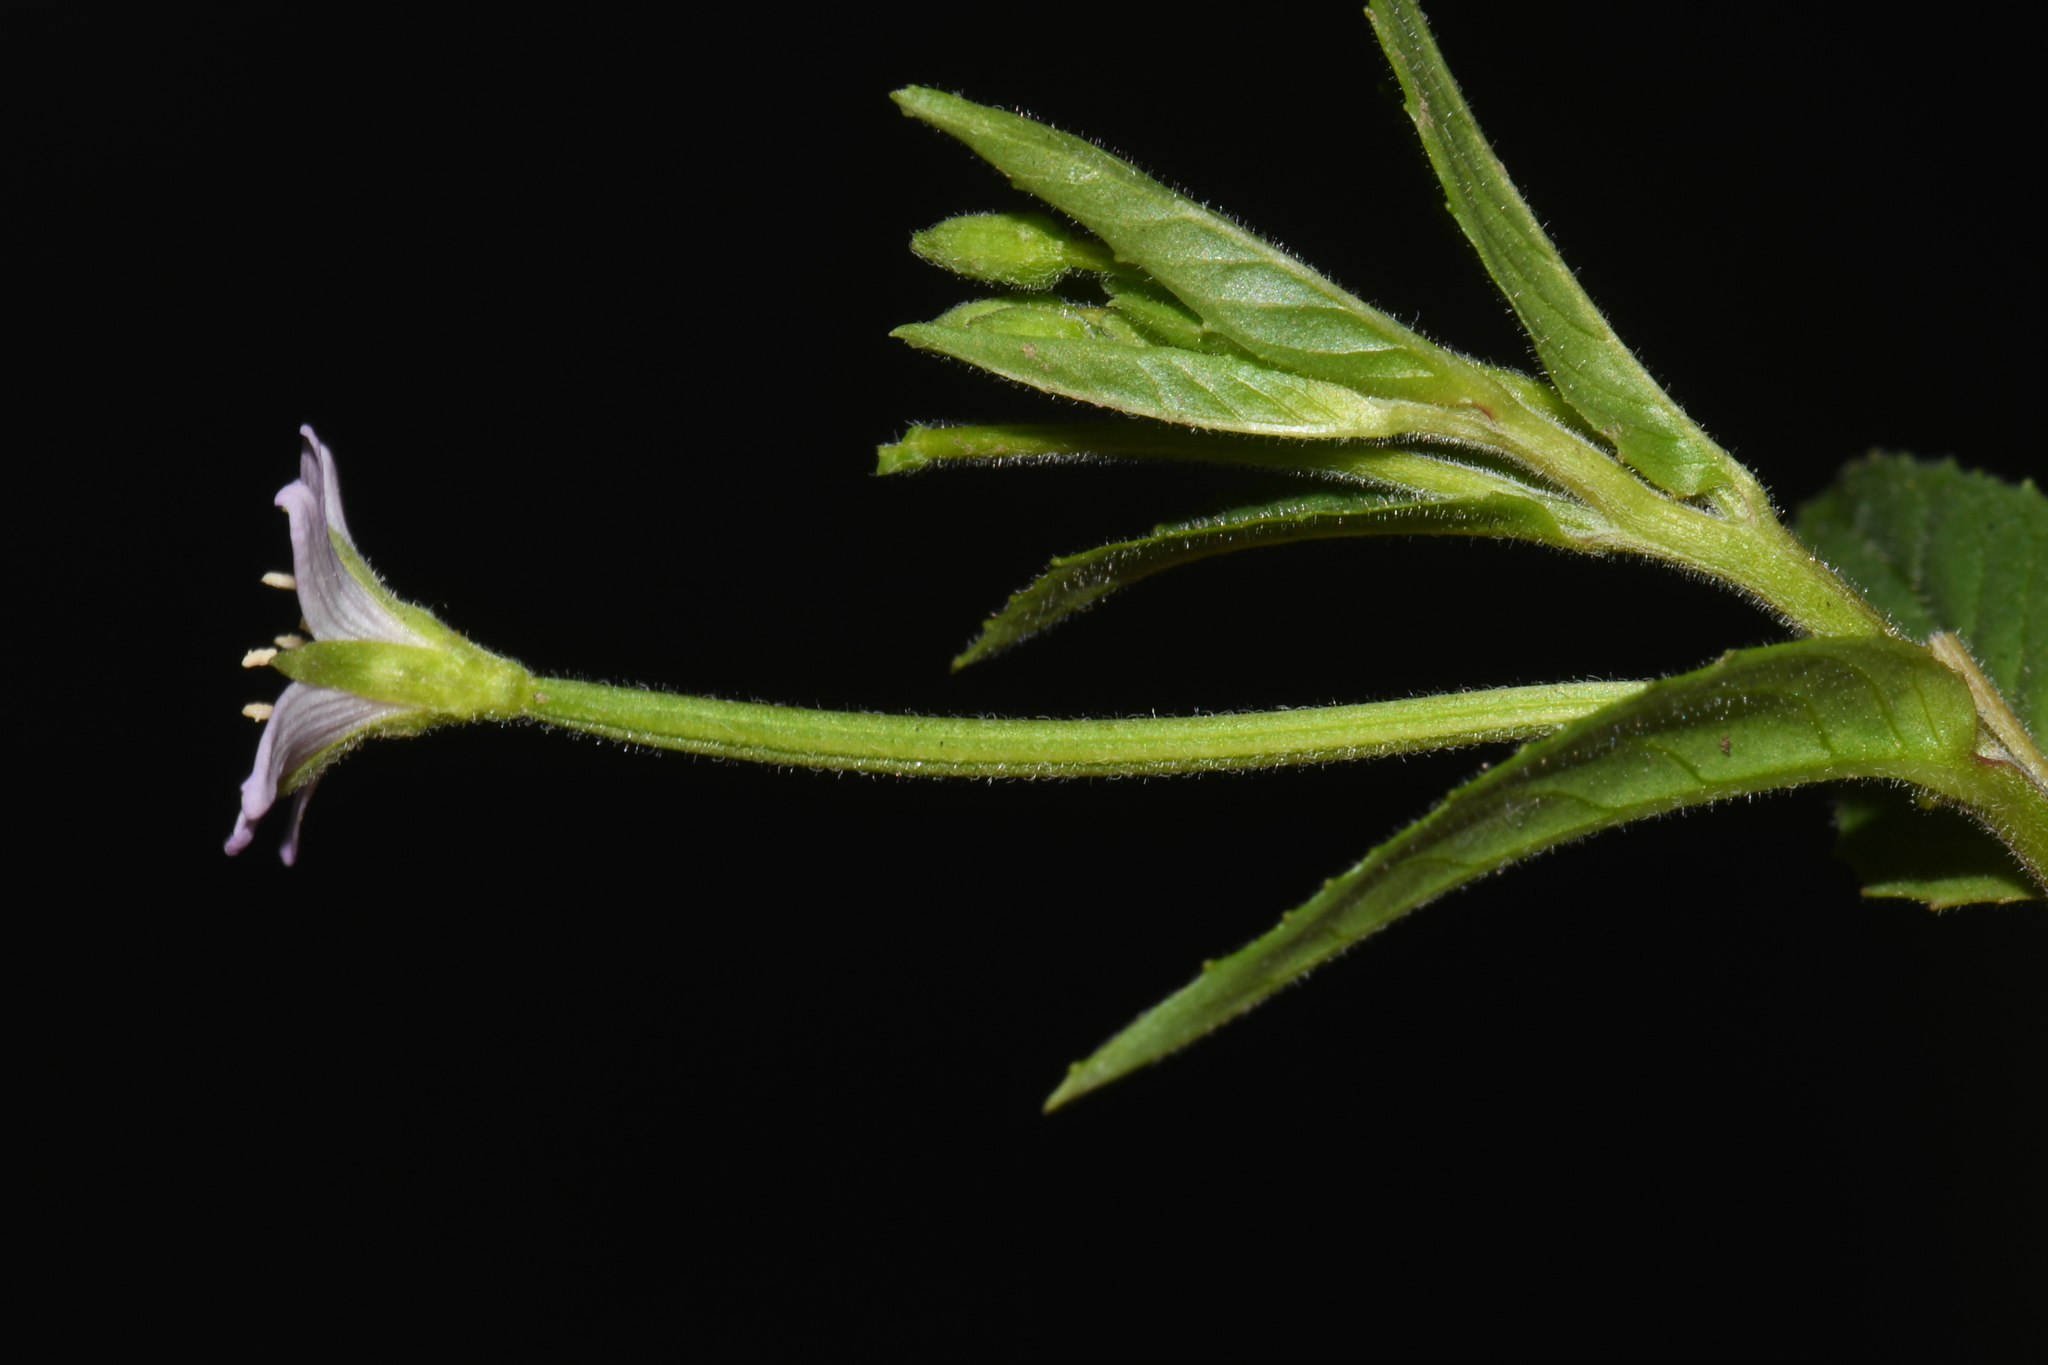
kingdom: Plantae
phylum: Tracheophyta
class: Magnoliopsida
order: Myrtales
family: Onagraceae
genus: Epilobium
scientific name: Epilobium ciliatum
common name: American willowherb
